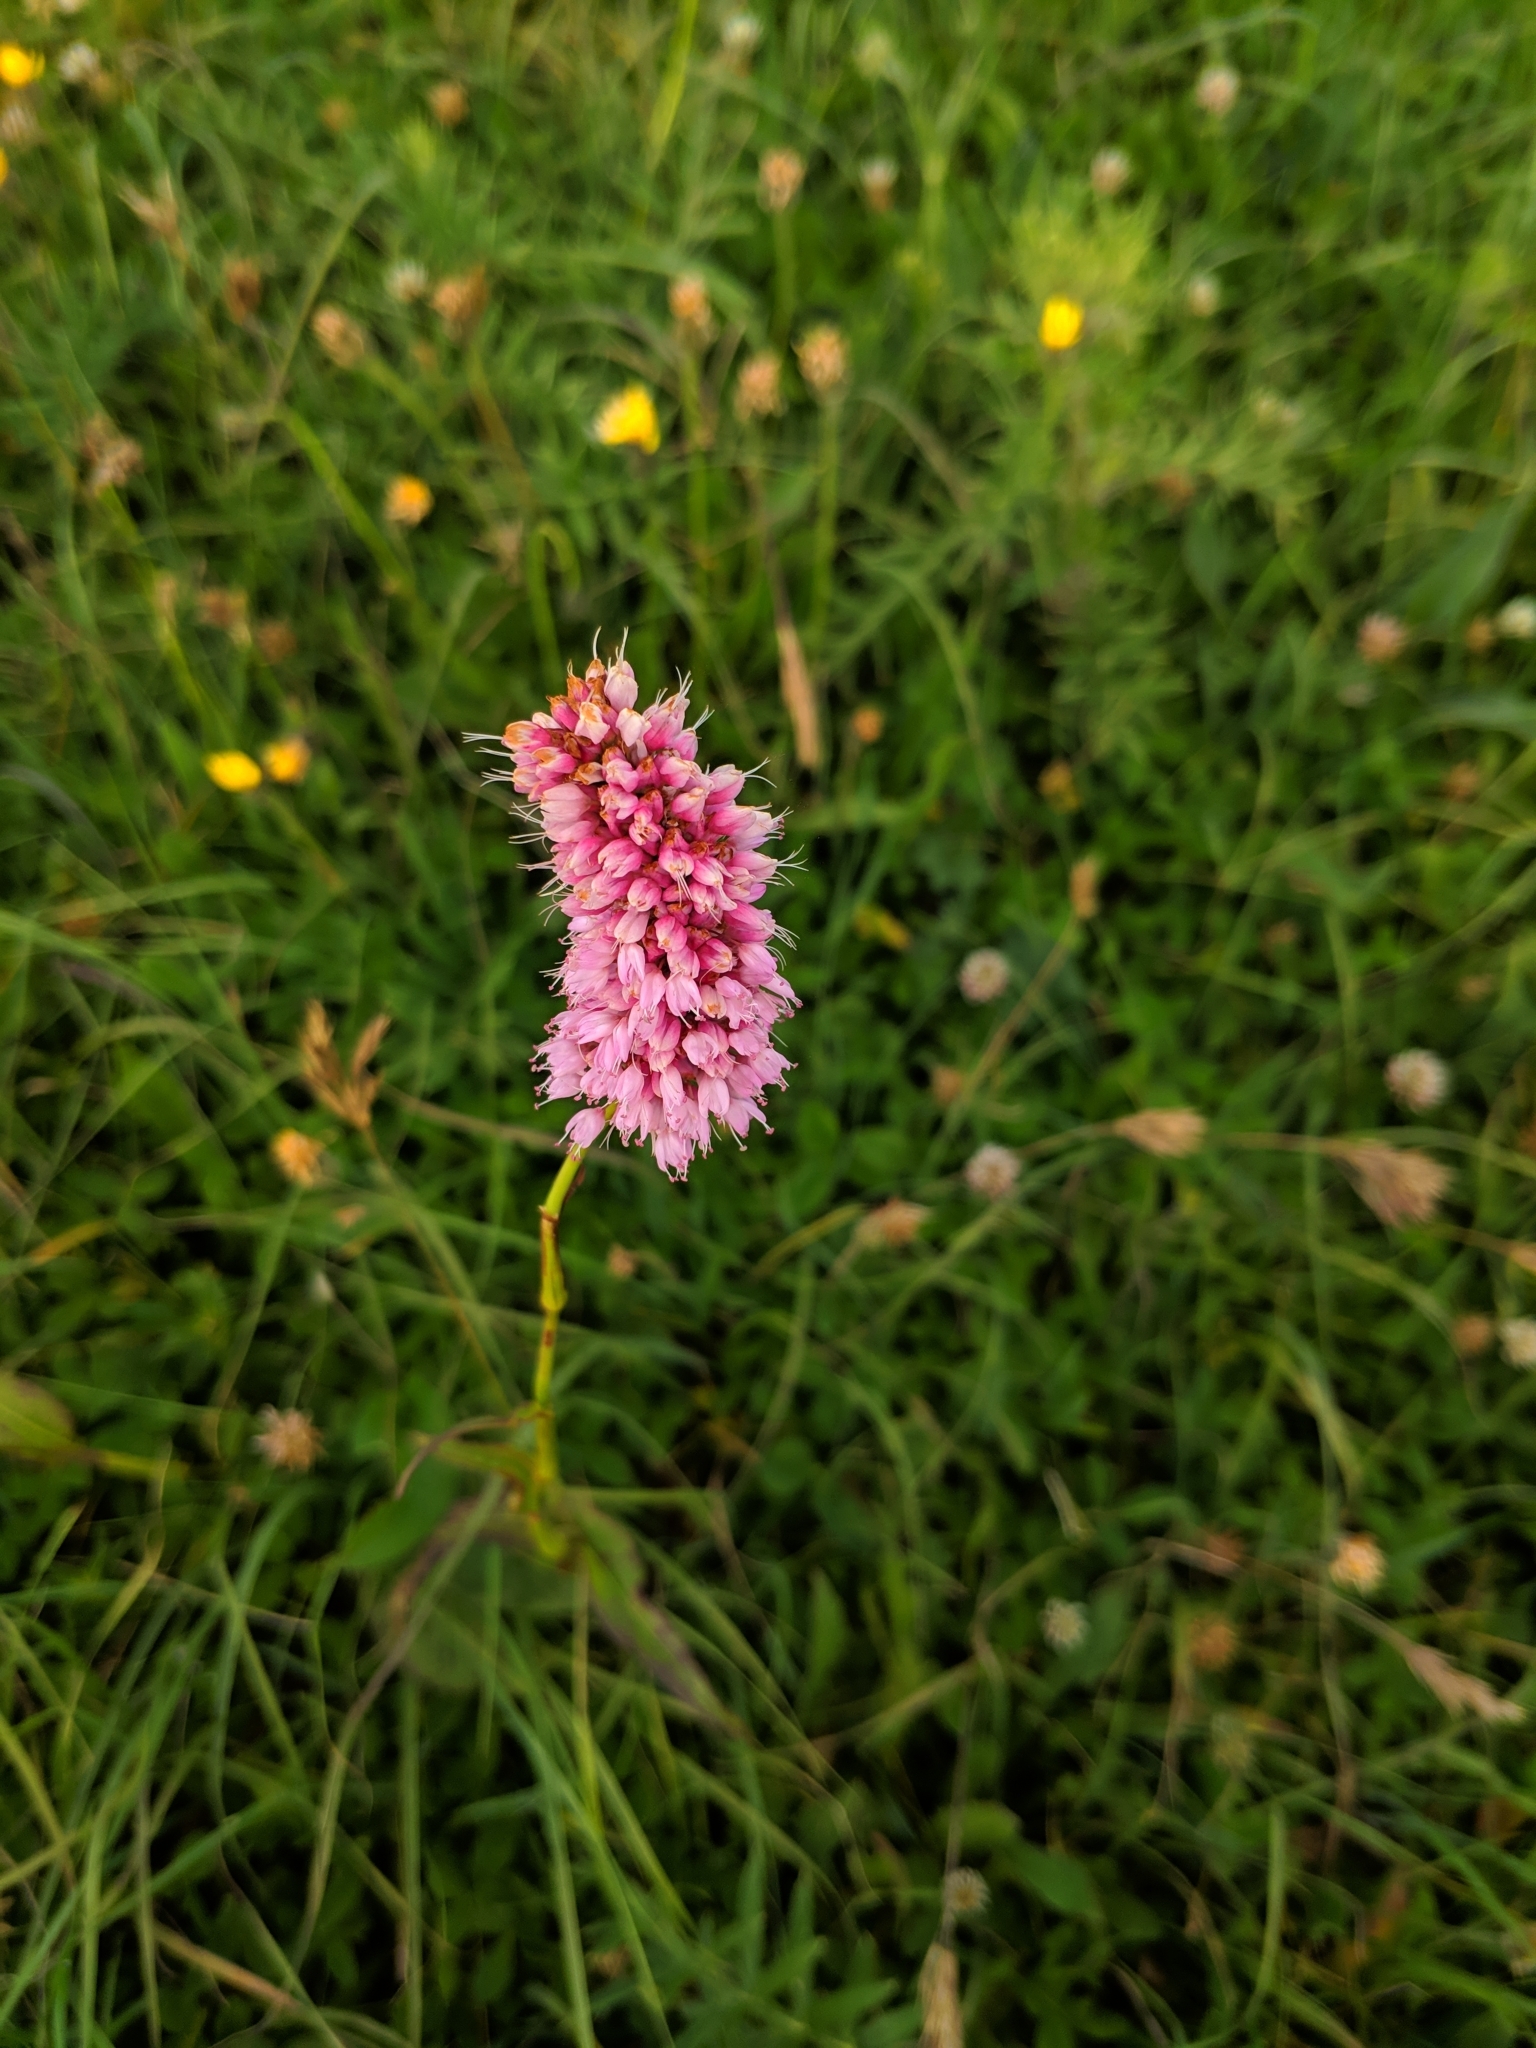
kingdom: Plantae
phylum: Tracheophyta
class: Magnoliopsida
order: Caryophyllales
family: Polygonaceae
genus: Bistorta
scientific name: Bistorta carnea
